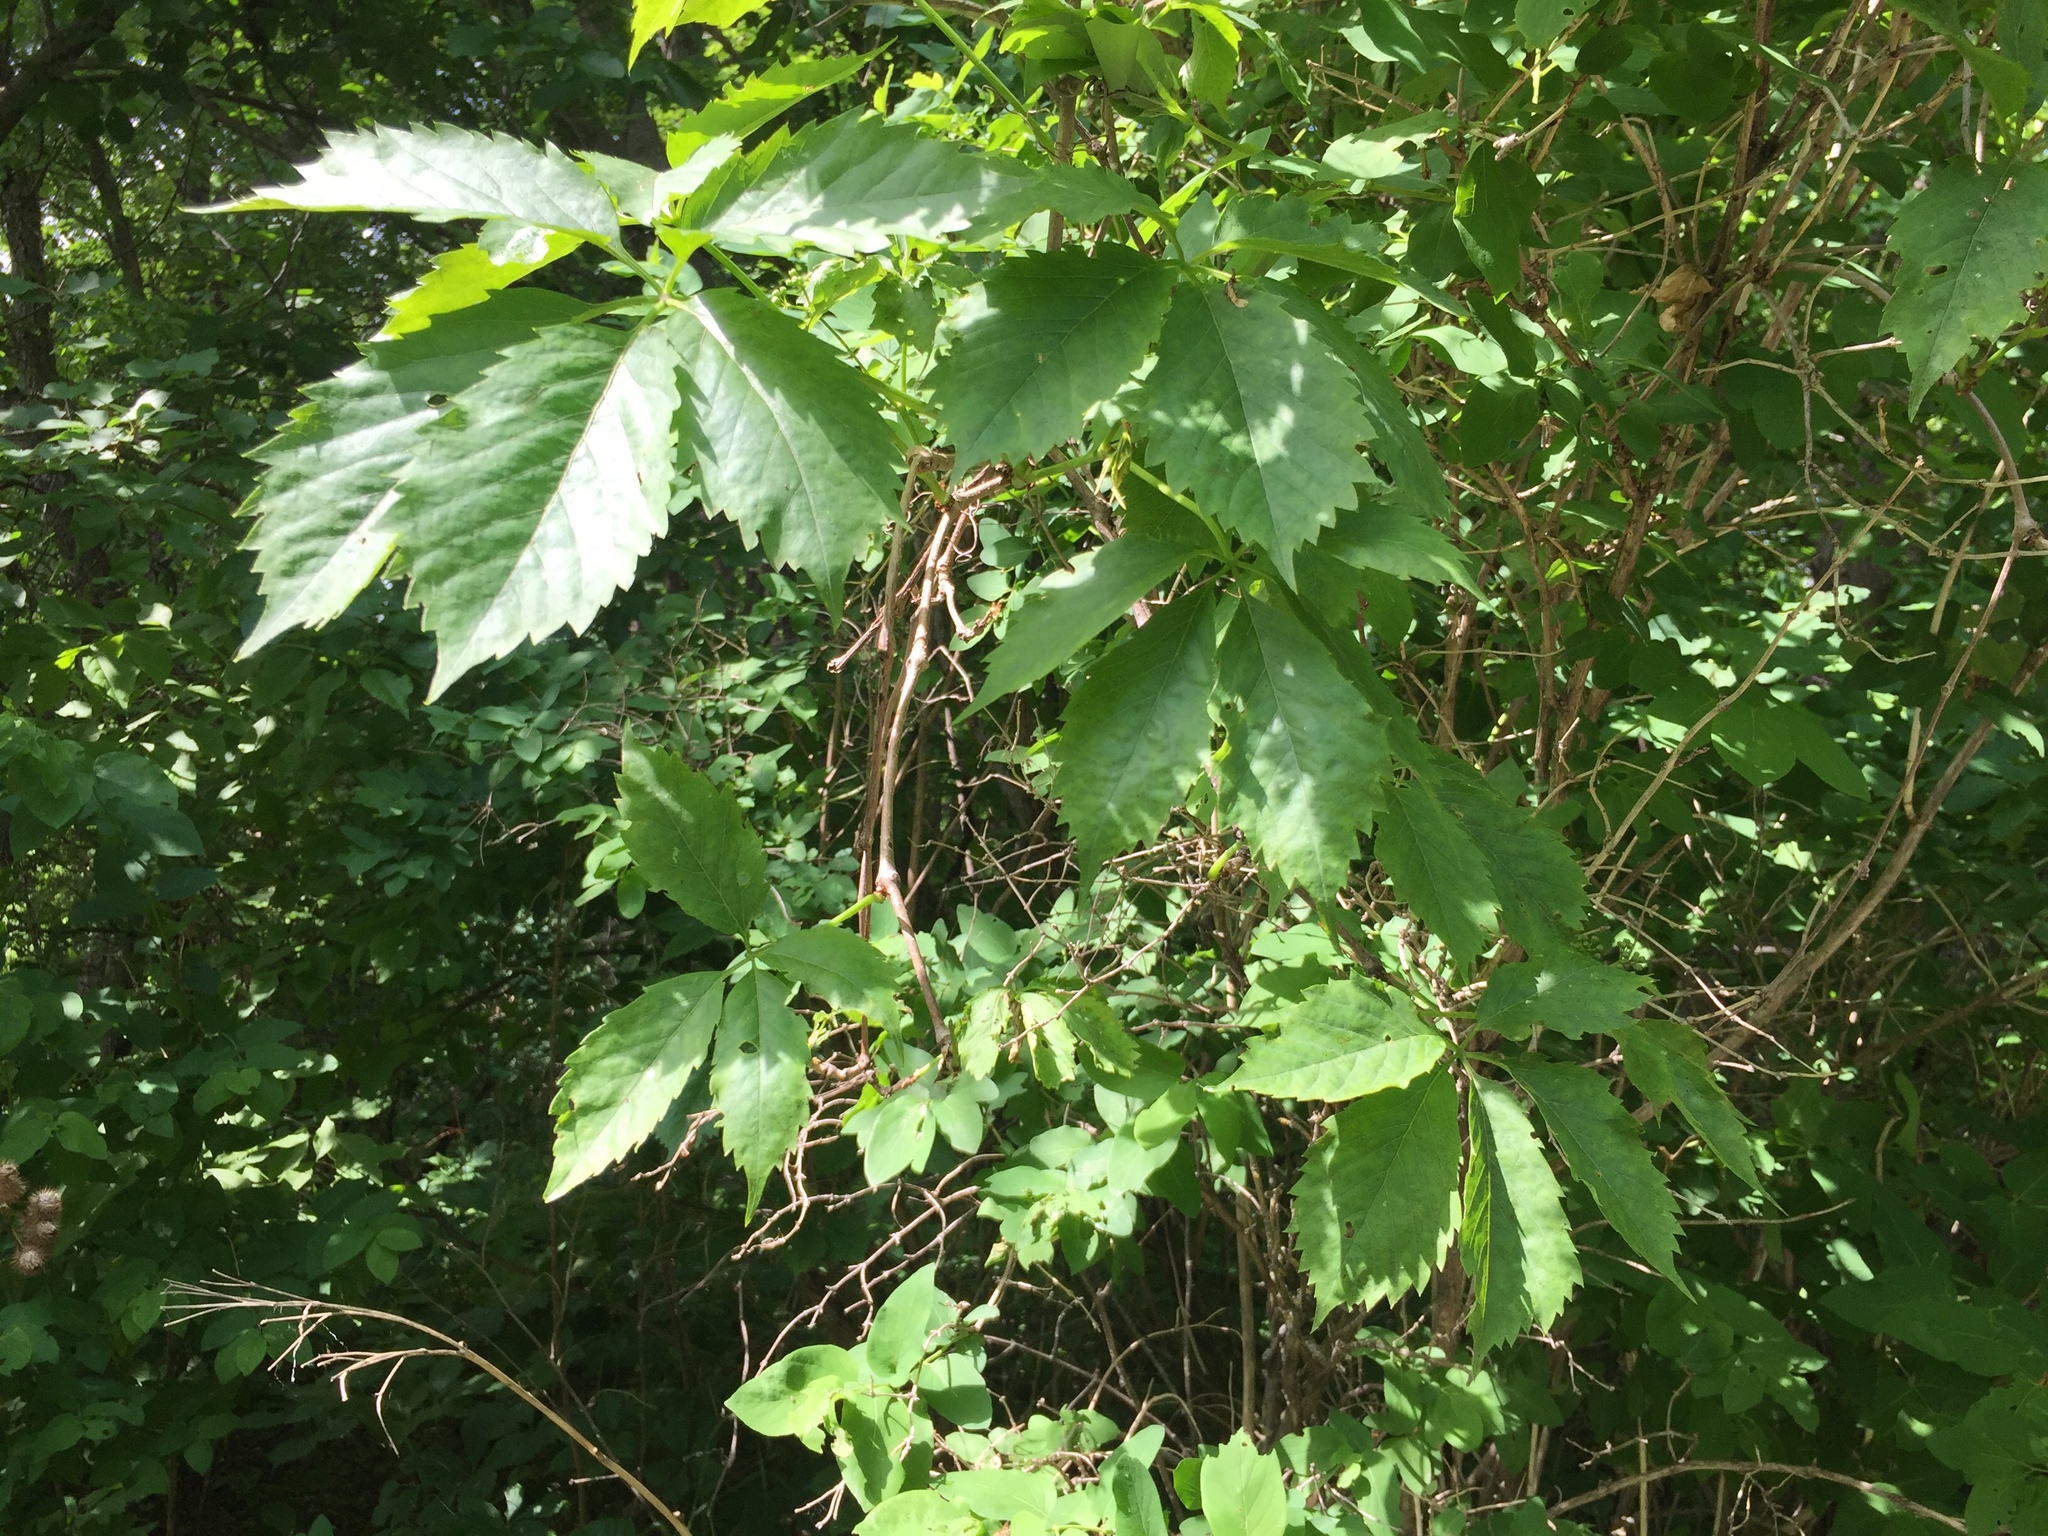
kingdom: Plantae
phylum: Tracheophyta
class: Magnoliopsida
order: Vitales
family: Vitaceae
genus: Parthenocissus
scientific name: Parthenocissus quinquefolia
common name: Virginia-creeper
